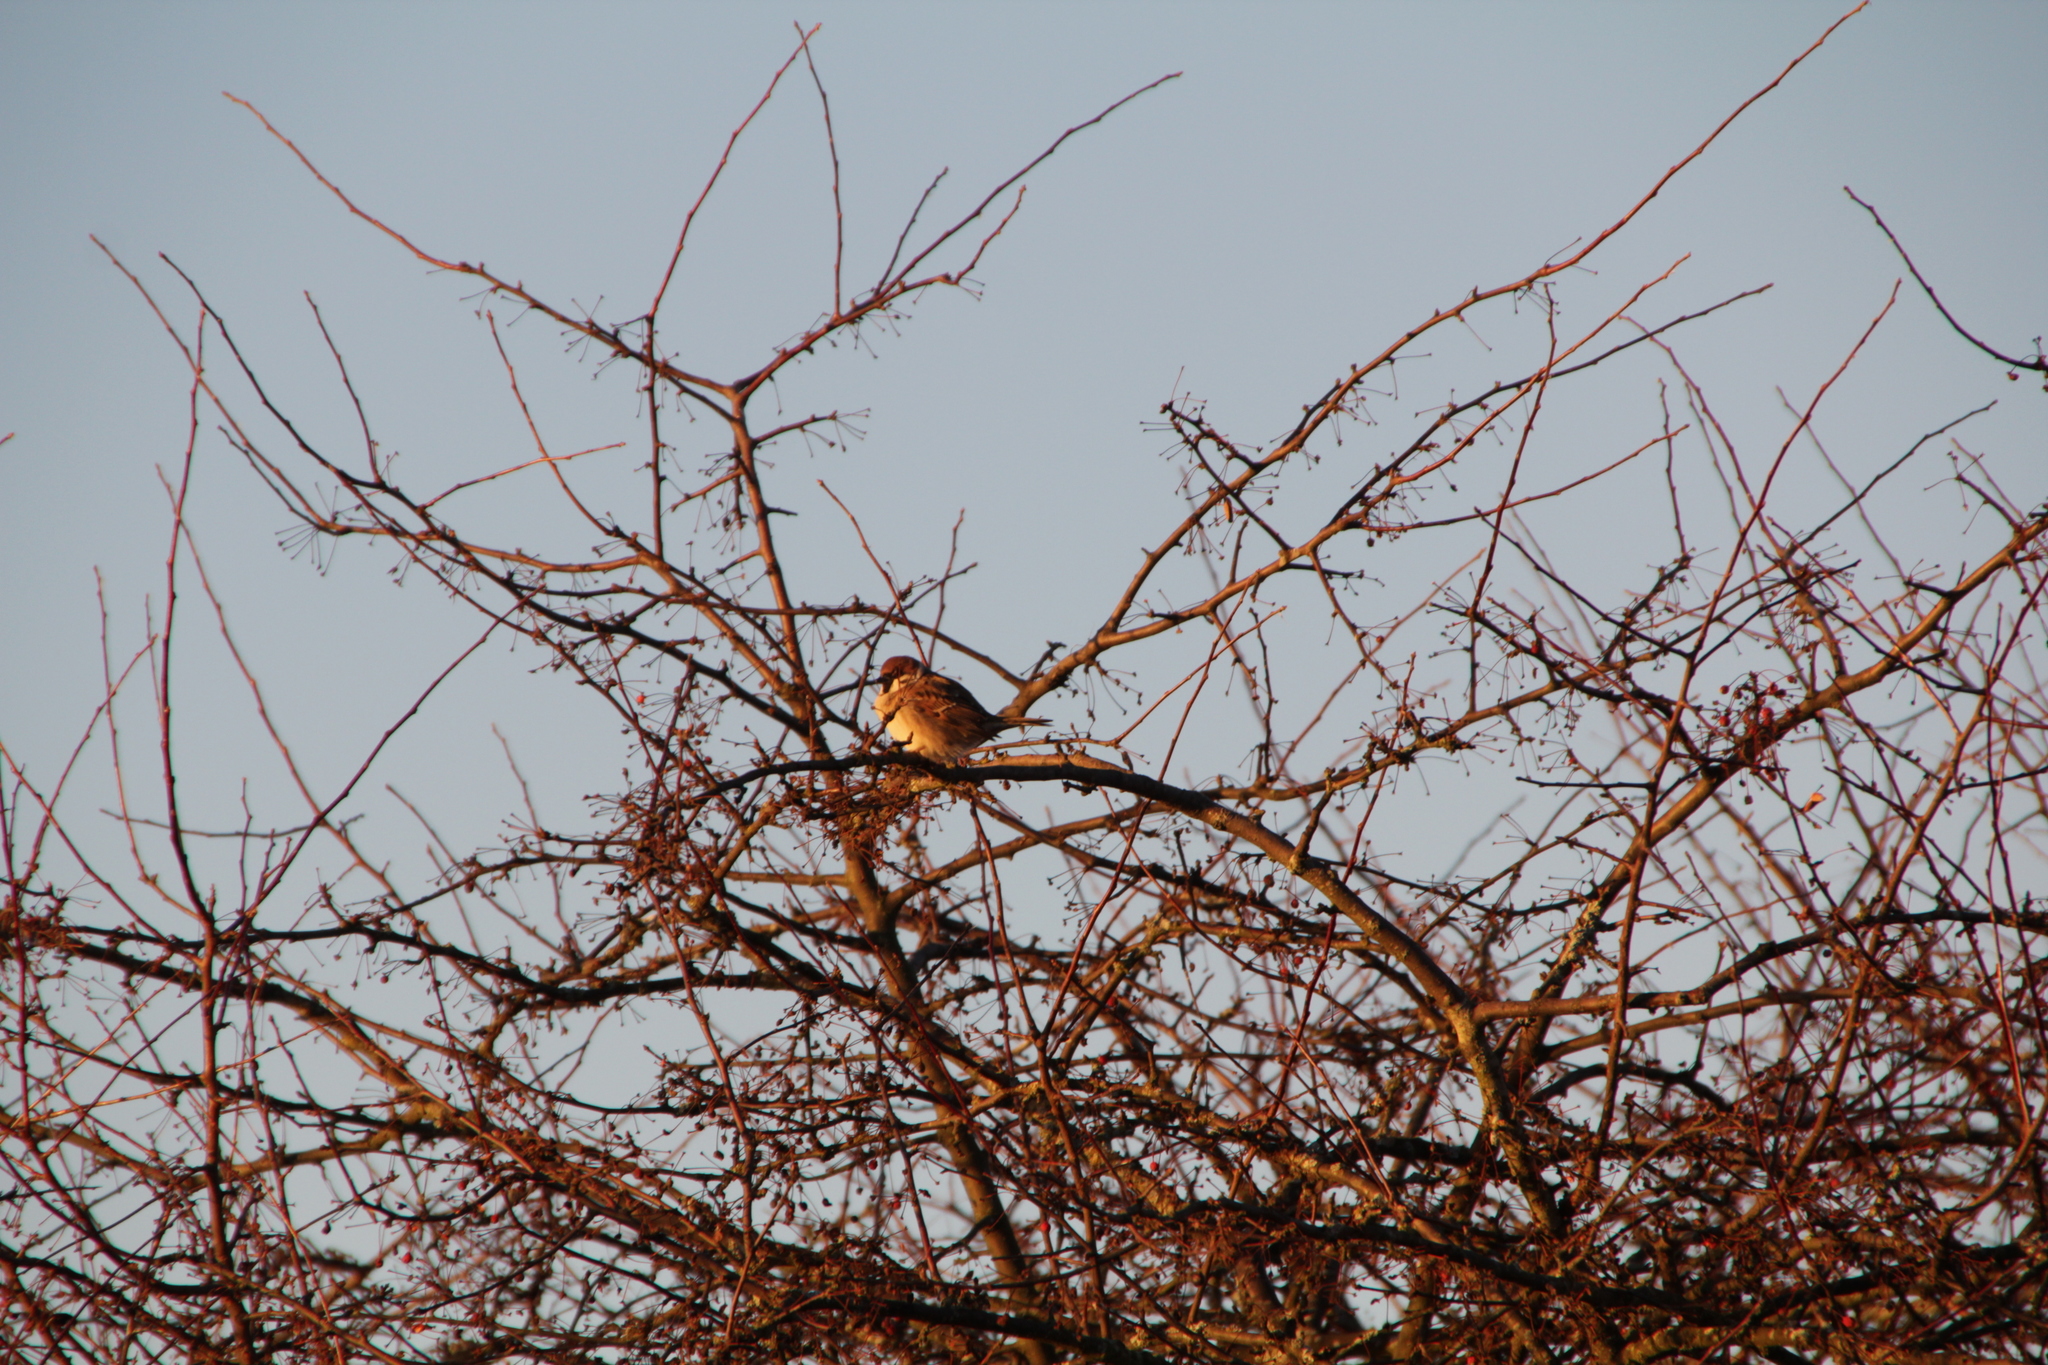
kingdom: Animalia
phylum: Chordata
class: Aves
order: Passeriformes
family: Passeridae
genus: Passer
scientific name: Passer montanus
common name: Eurasian tree sparrow
